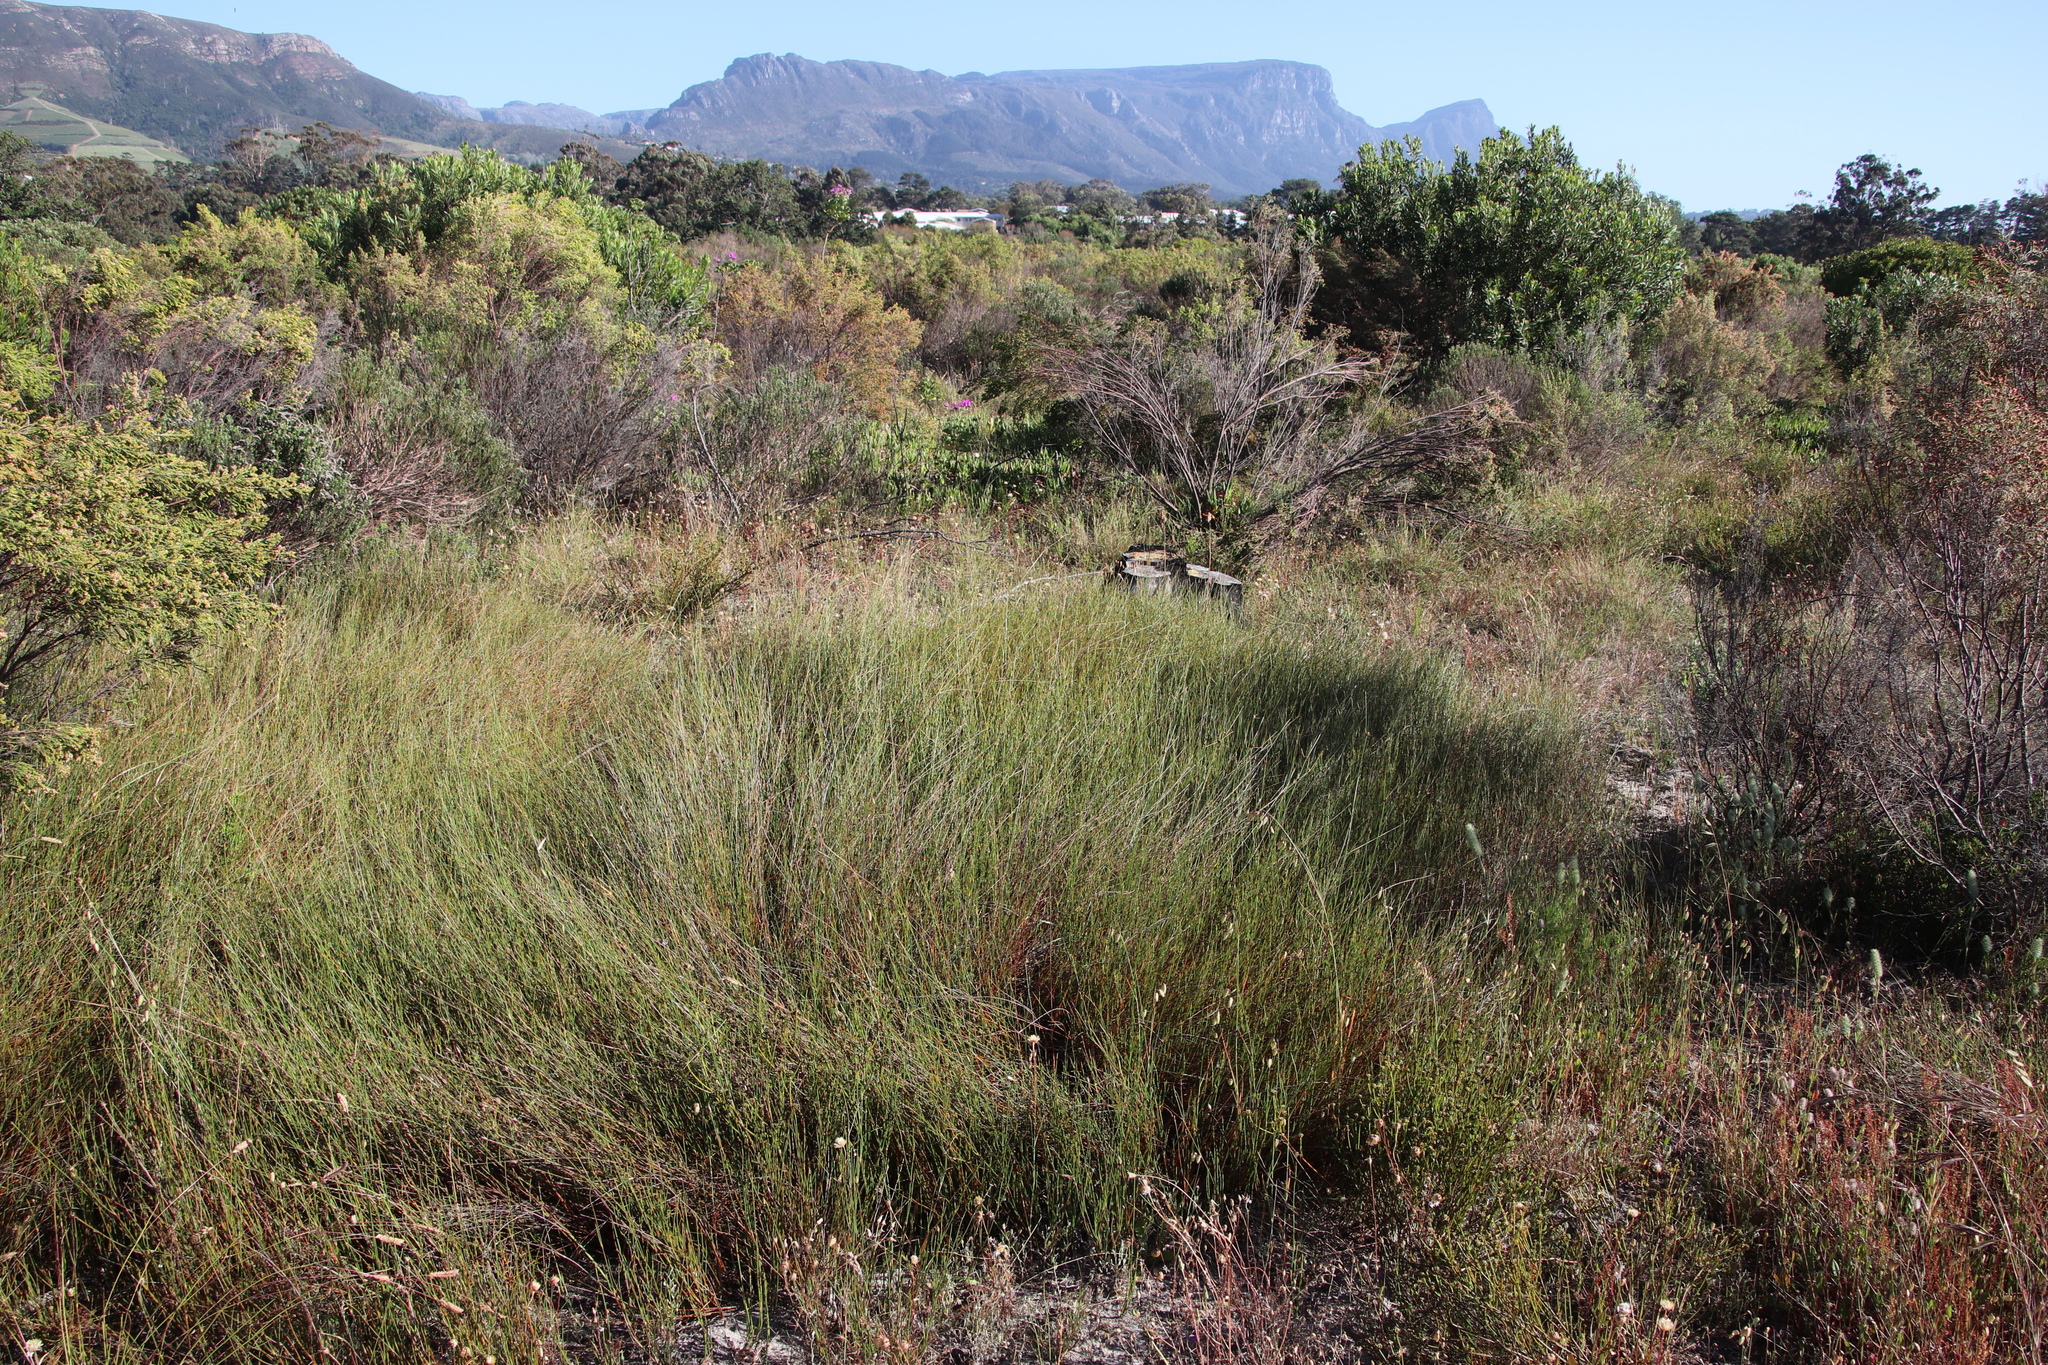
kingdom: Plantae
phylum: Tracheophyta
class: Liliopsida
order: Poales
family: Restionaceae
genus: Willdenowia
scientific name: Willdenowia sulcata
